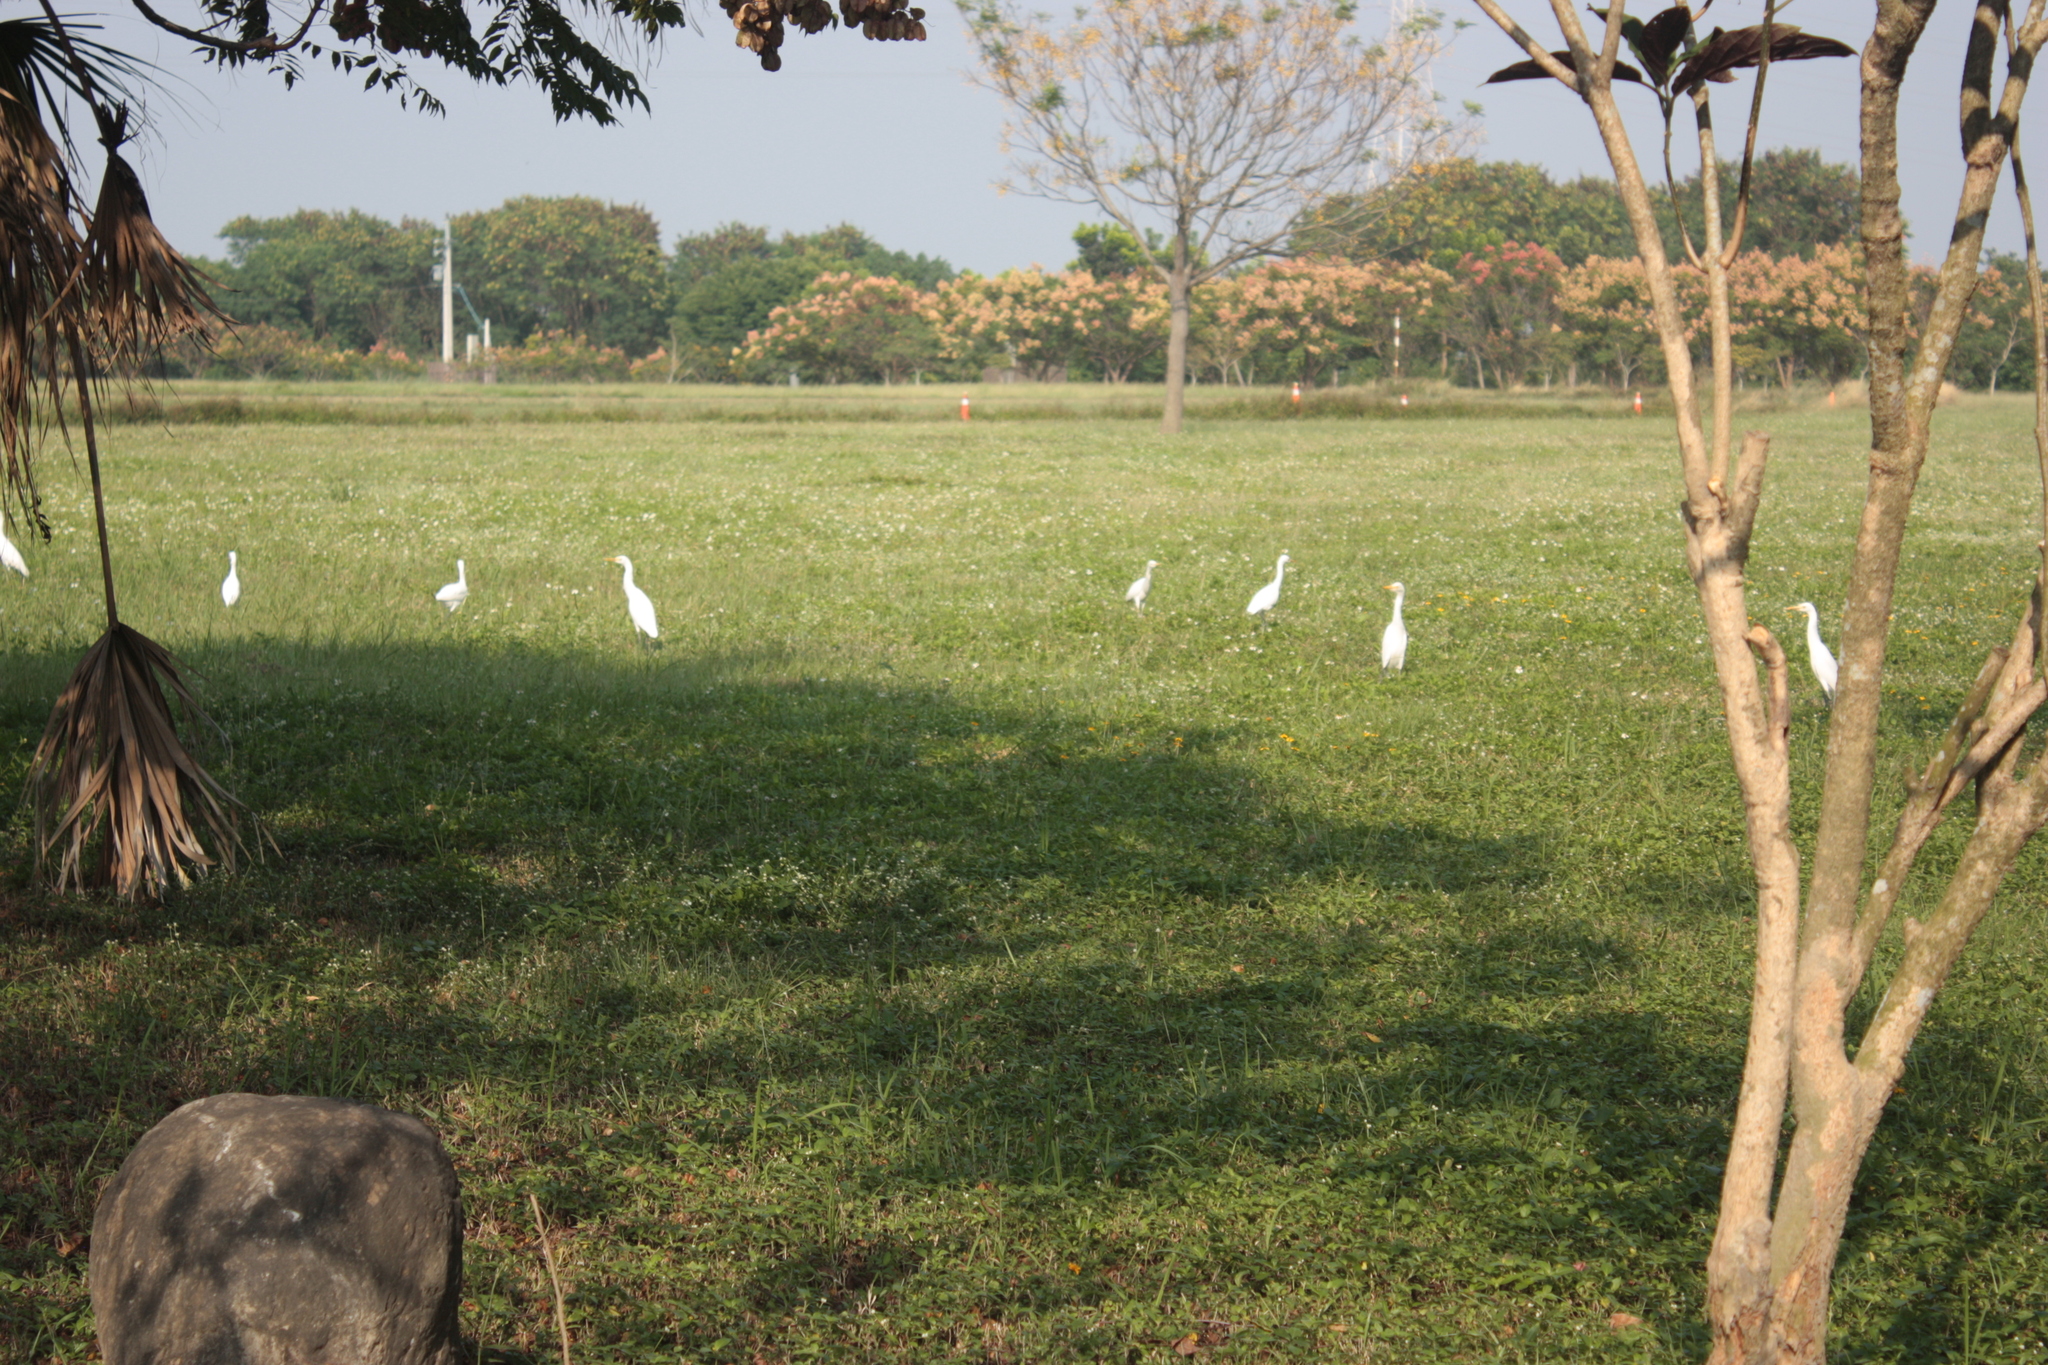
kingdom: Animalia
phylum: Chordata
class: Aves
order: Pelecaniformes
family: Ardeidae
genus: Bubulcus
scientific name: Bubulcus coromandus
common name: Eastern cattle egret
